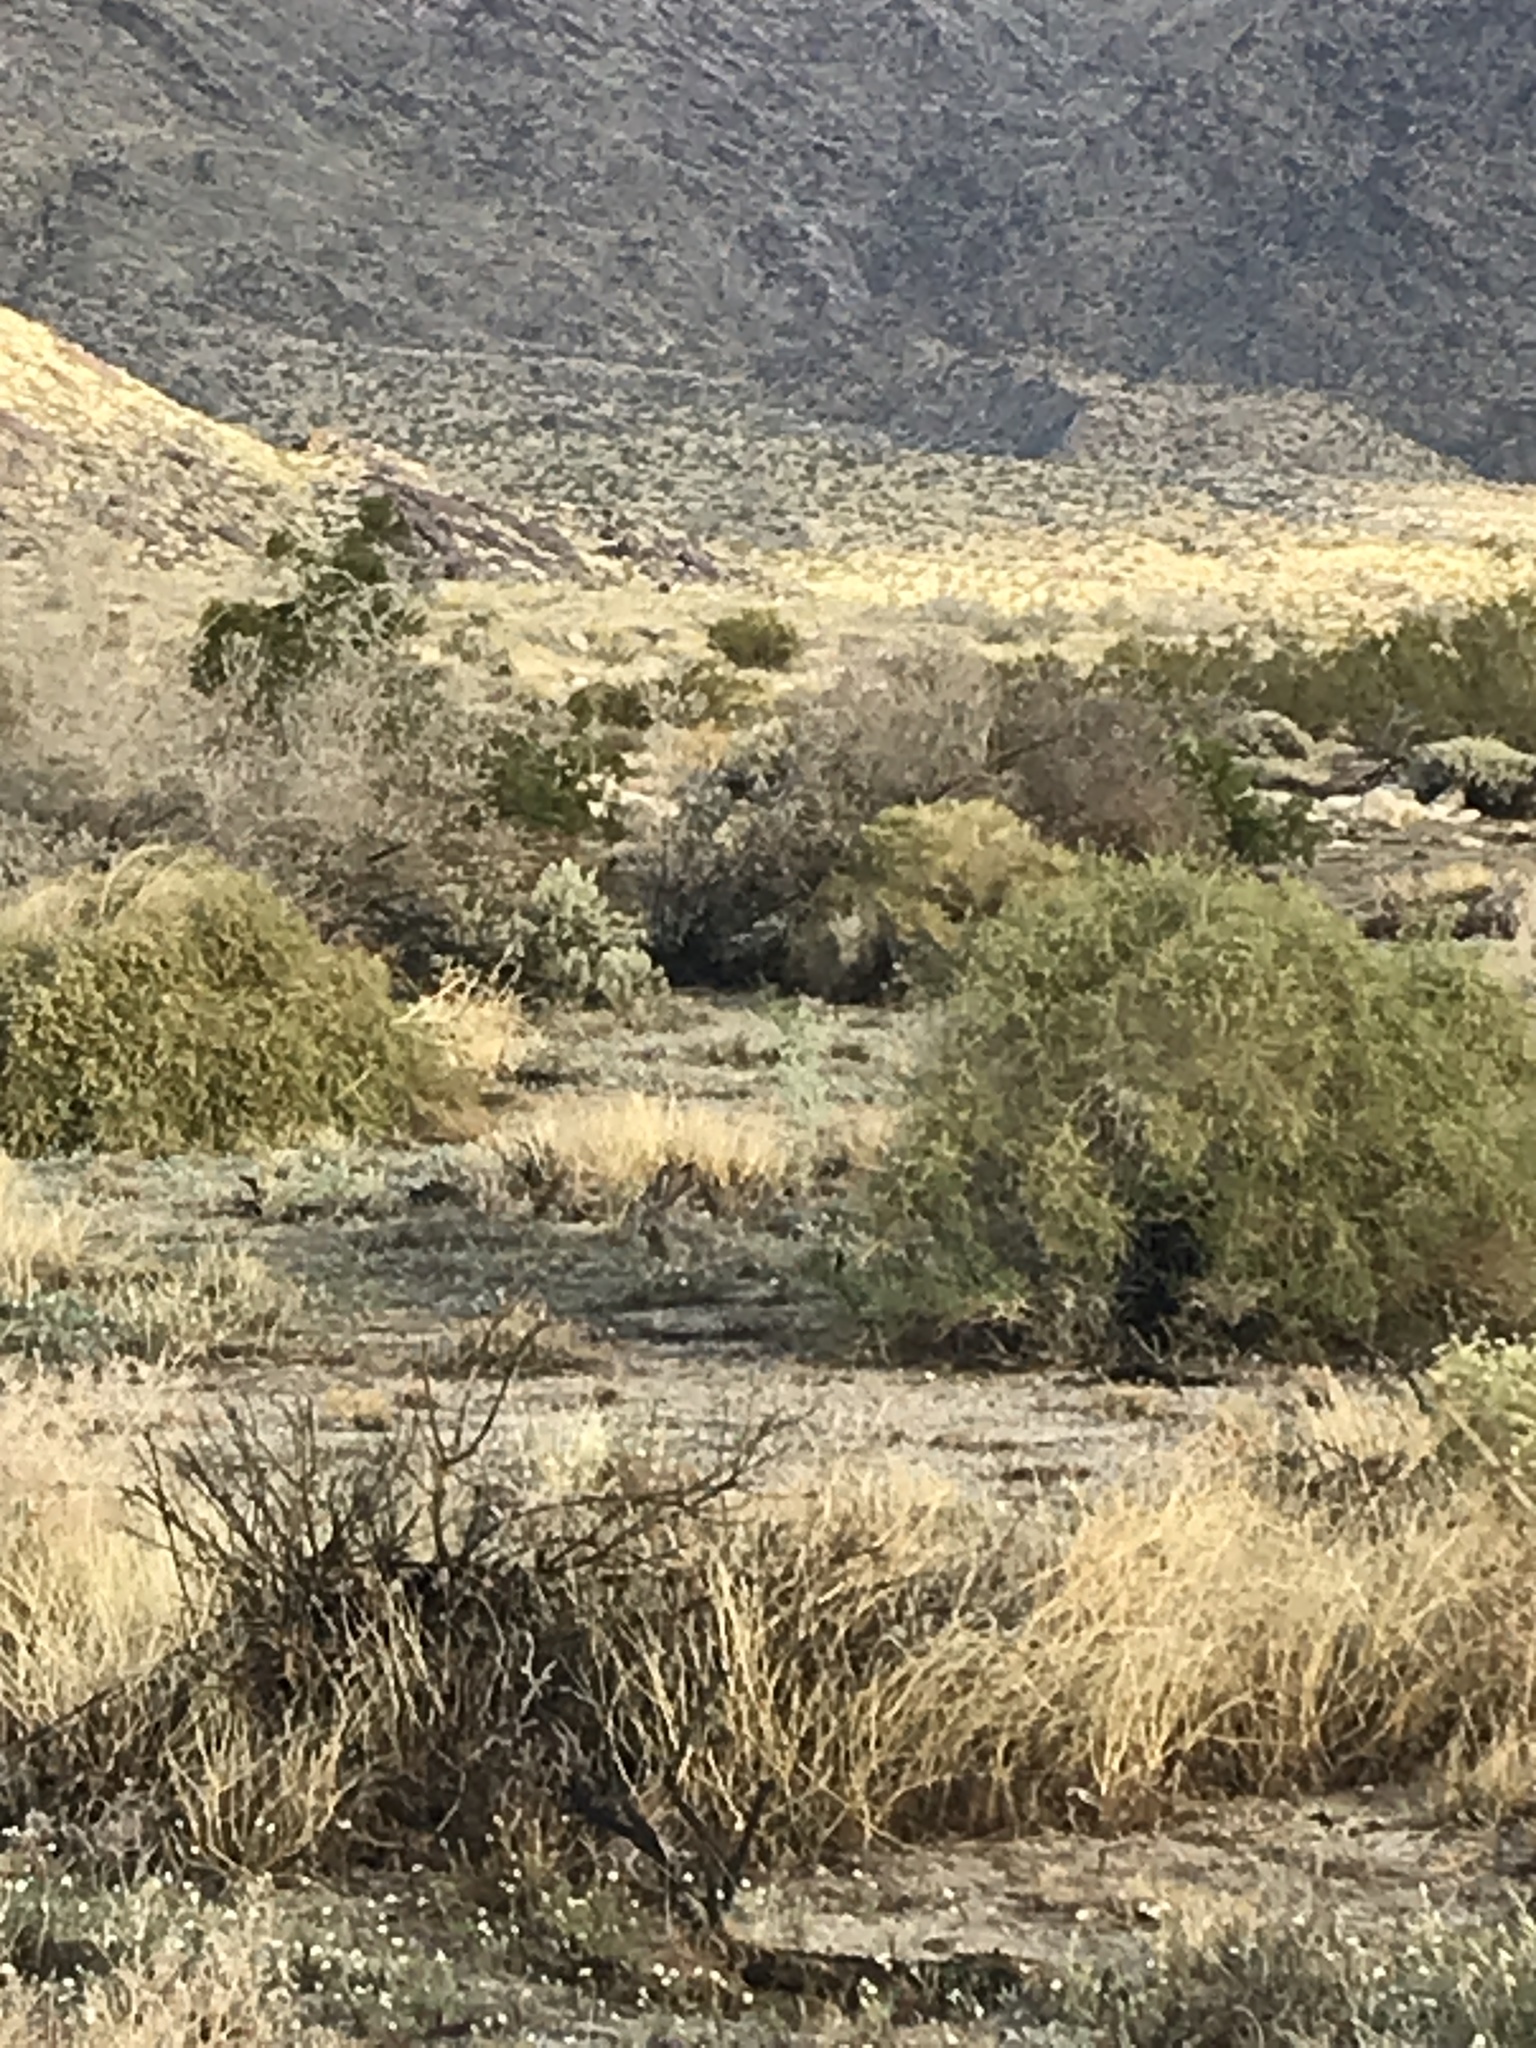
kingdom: Animalia
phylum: Chordata
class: Mammalia
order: Lagomorpha
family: Leporidae
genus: Lepus
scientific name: Lepus californicus
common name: Black-tailed jackrabbit
